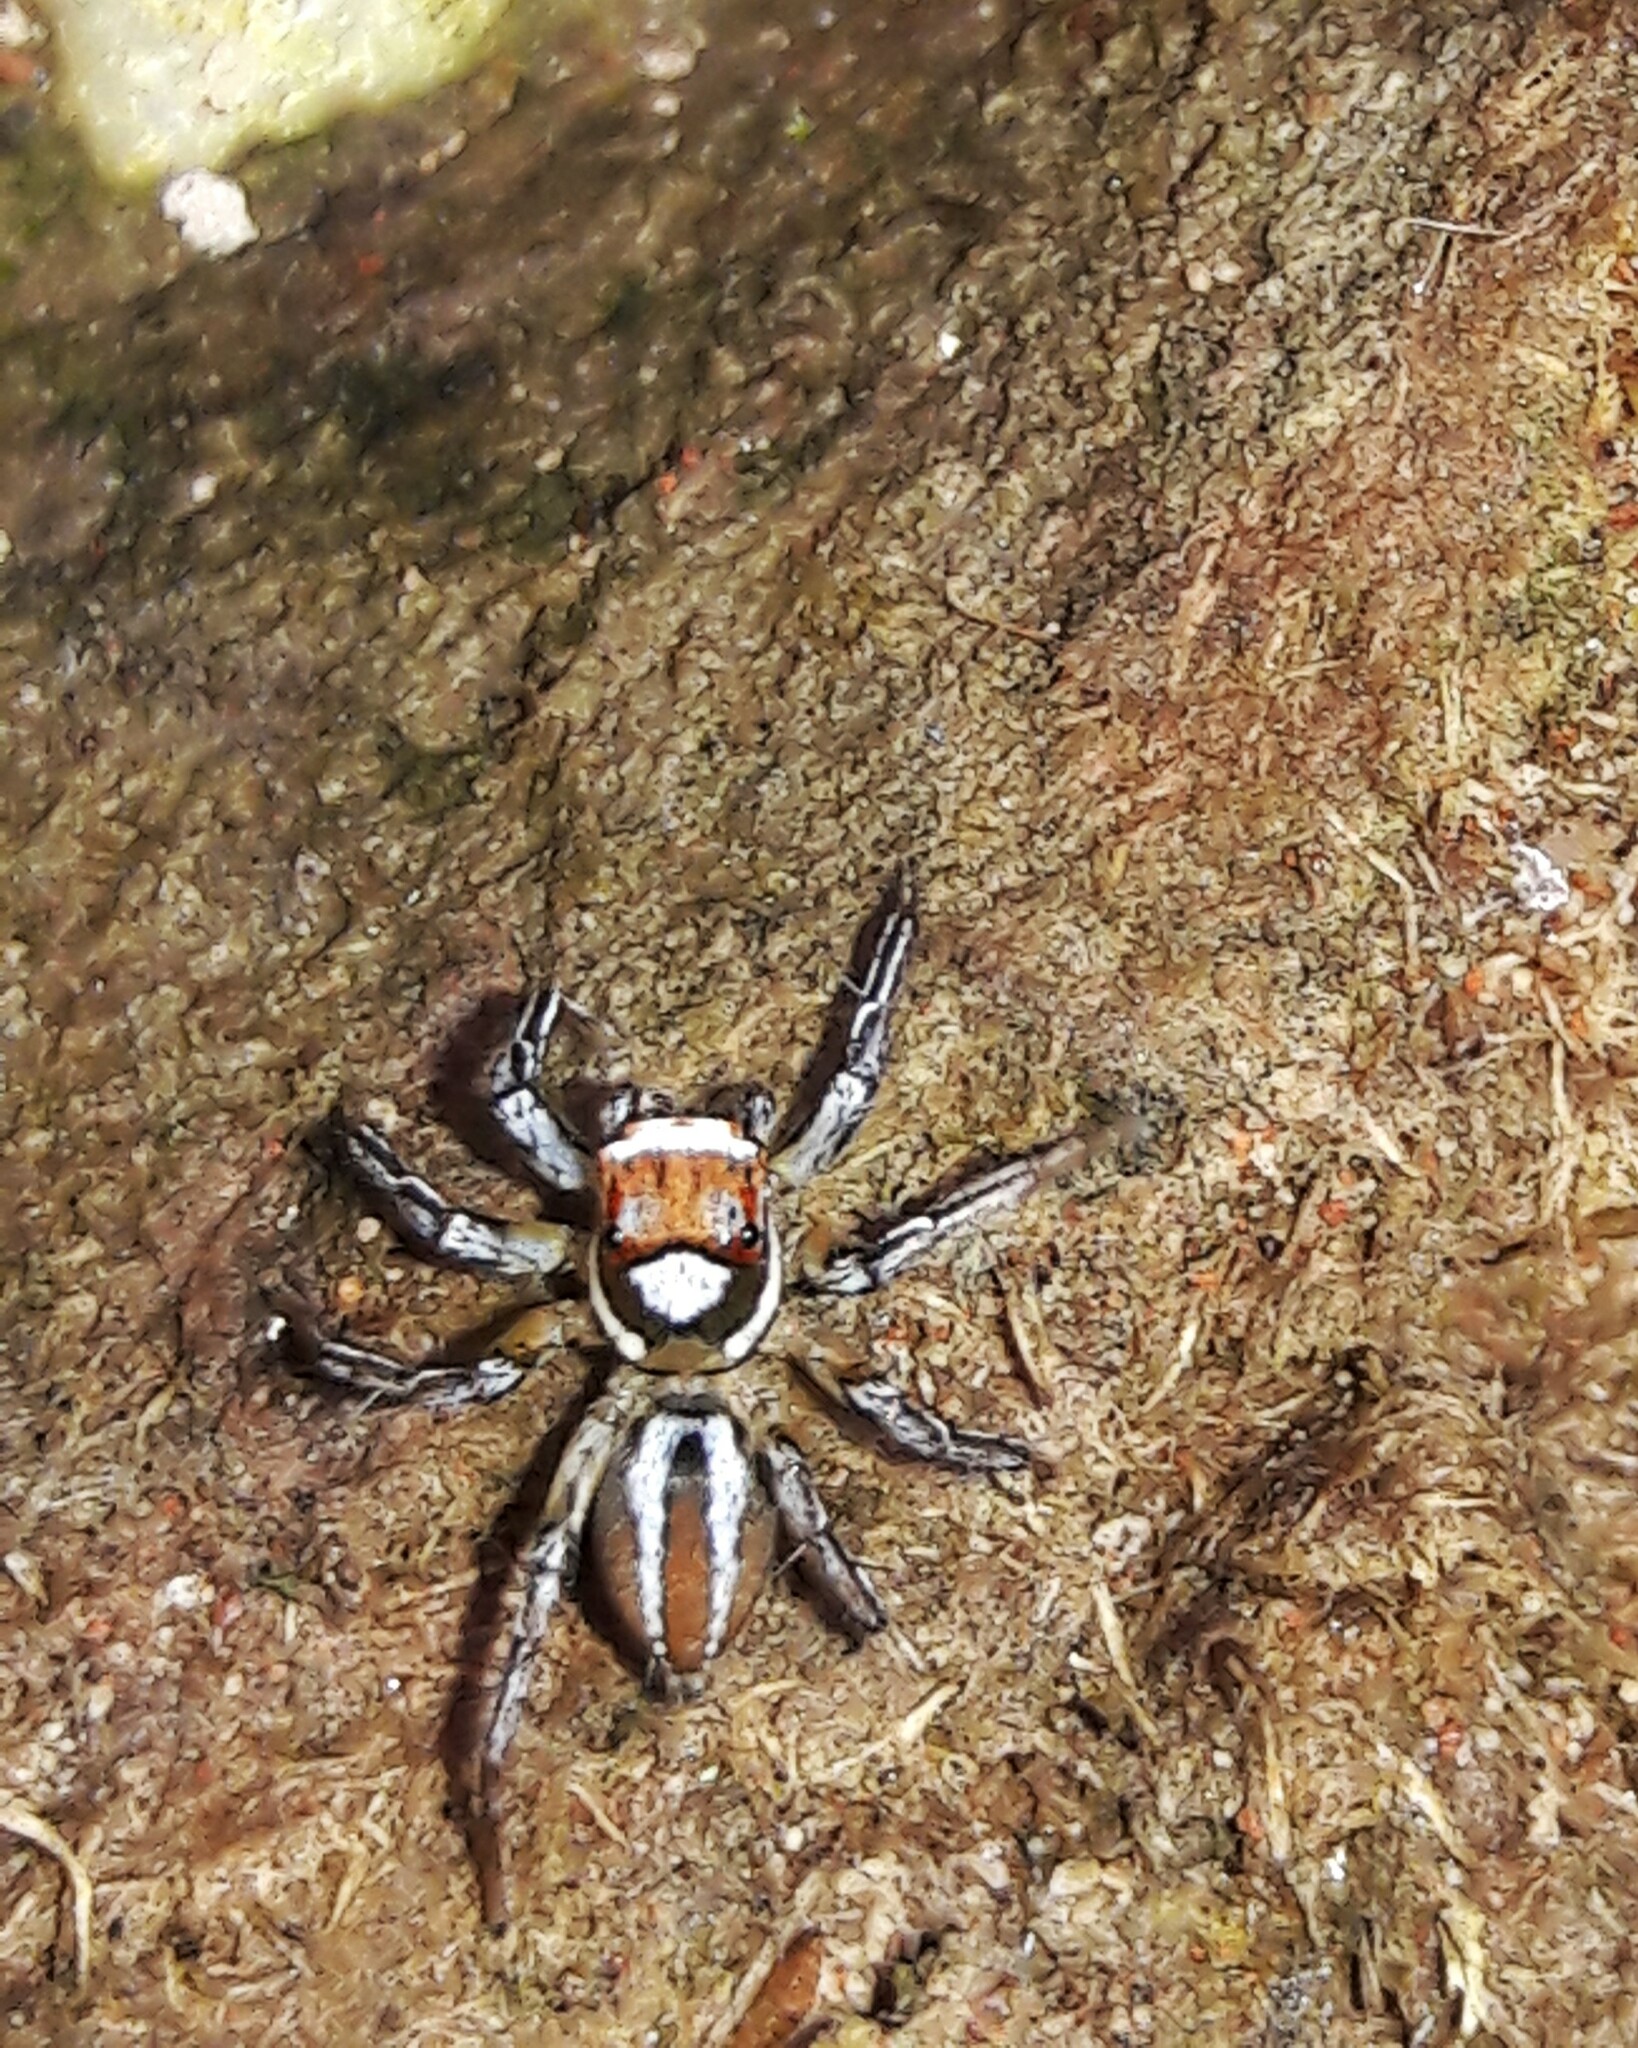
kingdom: Animalia
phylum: Arthropoda
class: Arachnida
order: Araneae
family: Salticidae
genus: Chira
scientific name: Chira simoni
